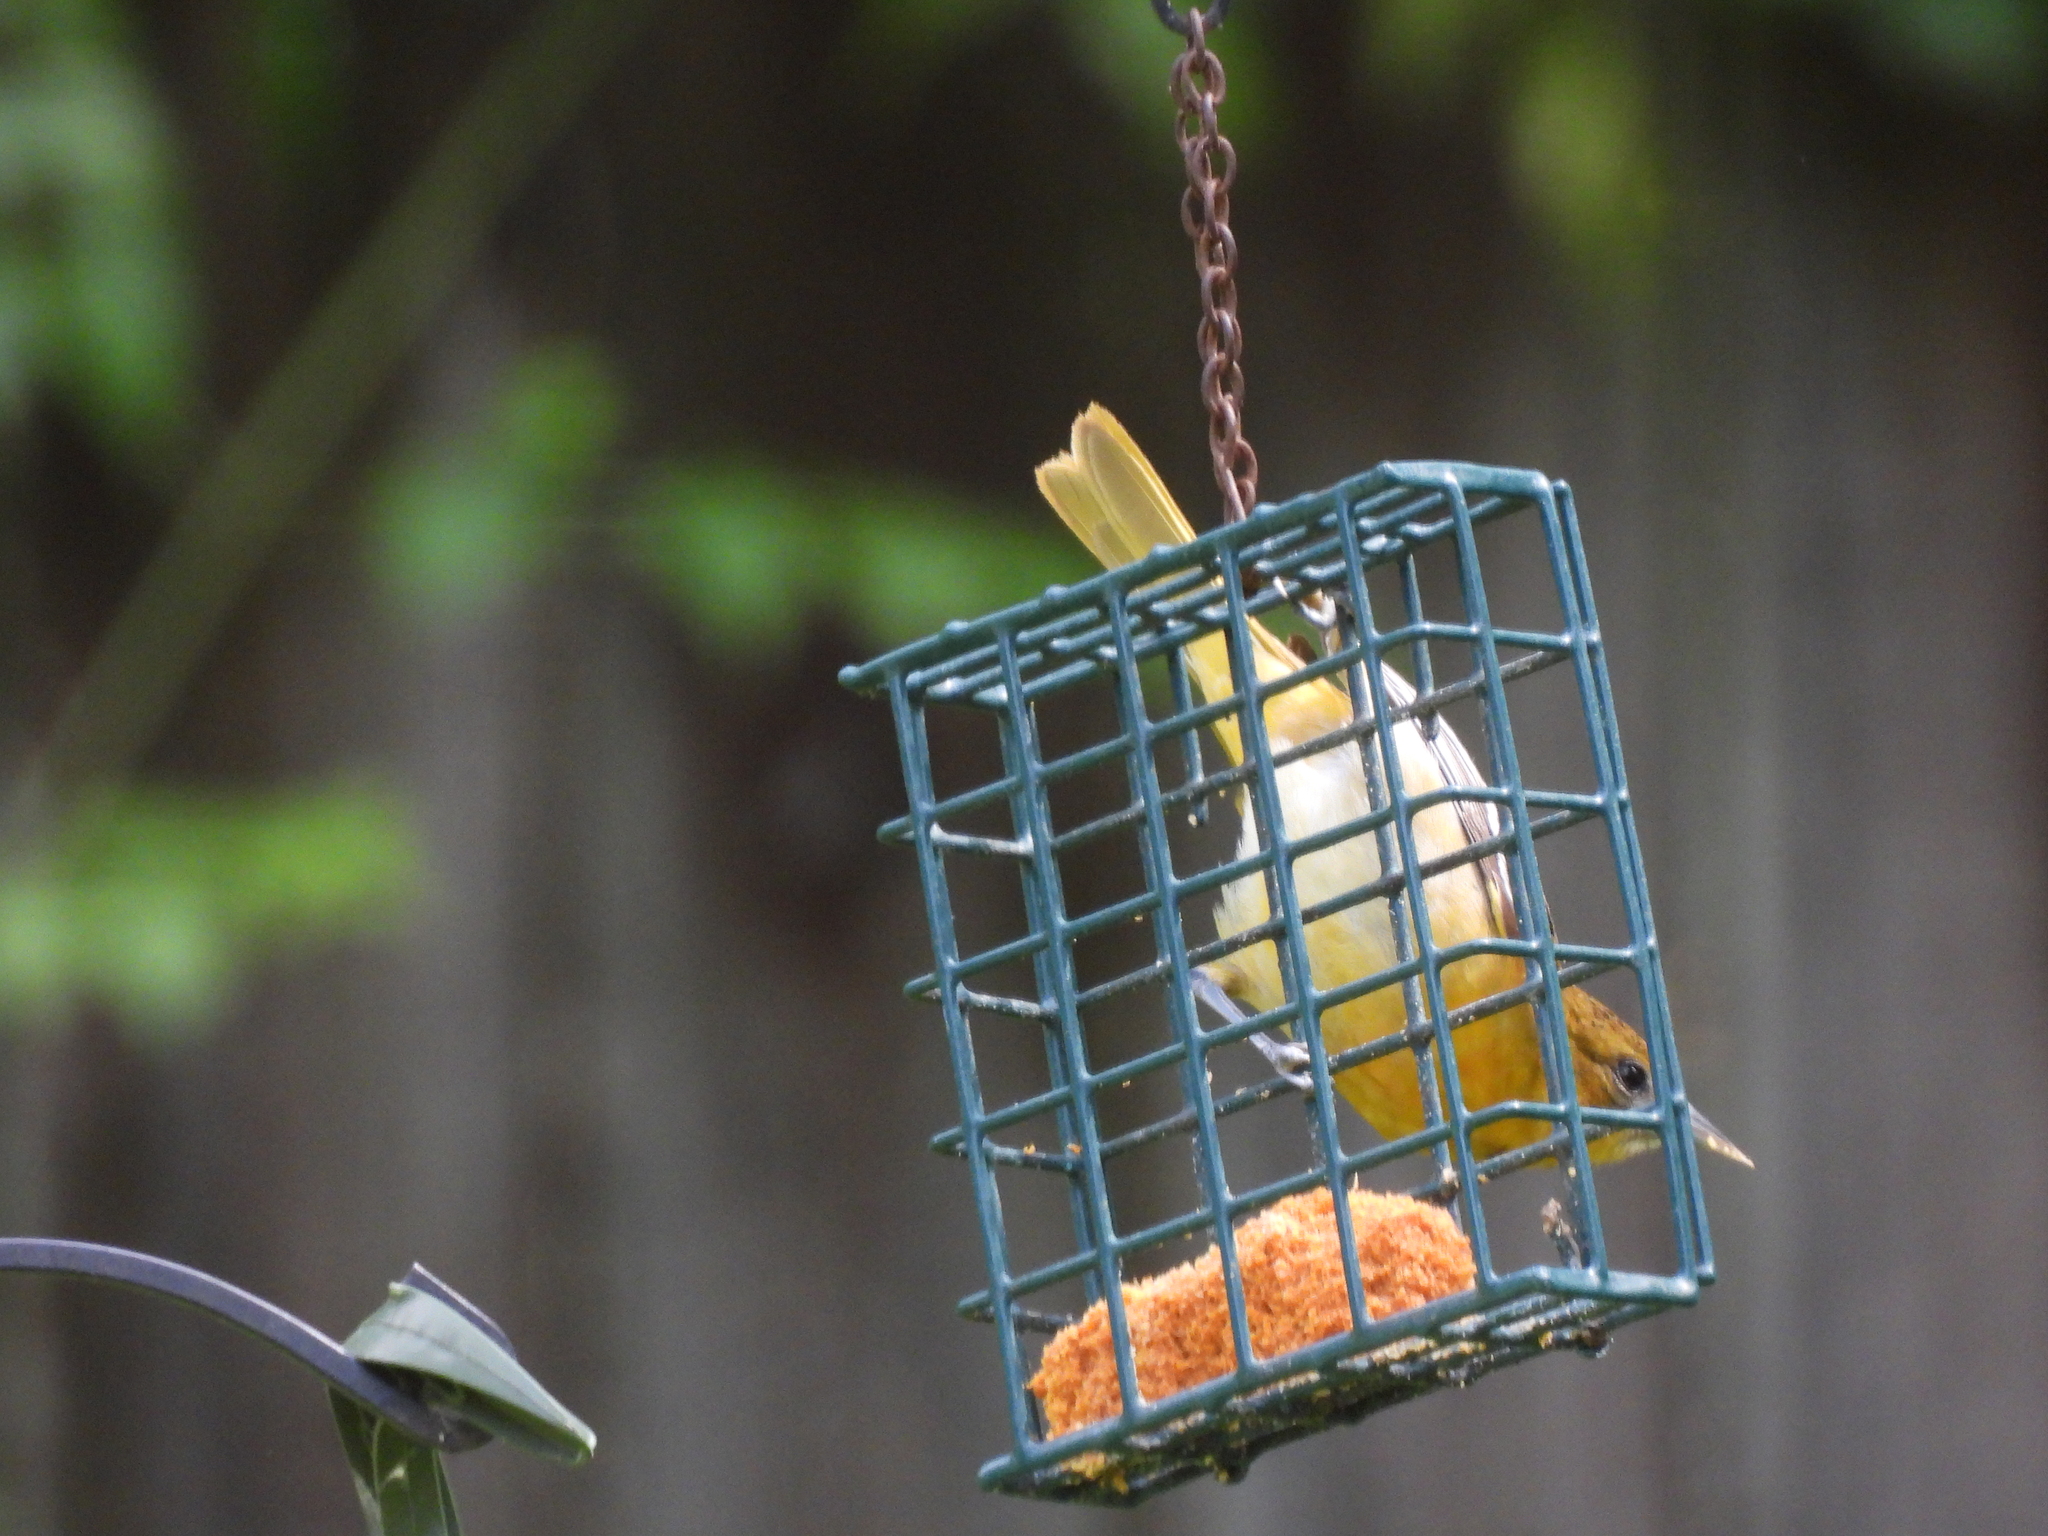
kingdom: Animalia
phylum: Chordata
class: Aves
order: Passeriformes
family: Icteridae
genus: Icterus
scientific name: Icterus galbula
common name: Baltimore oriole
